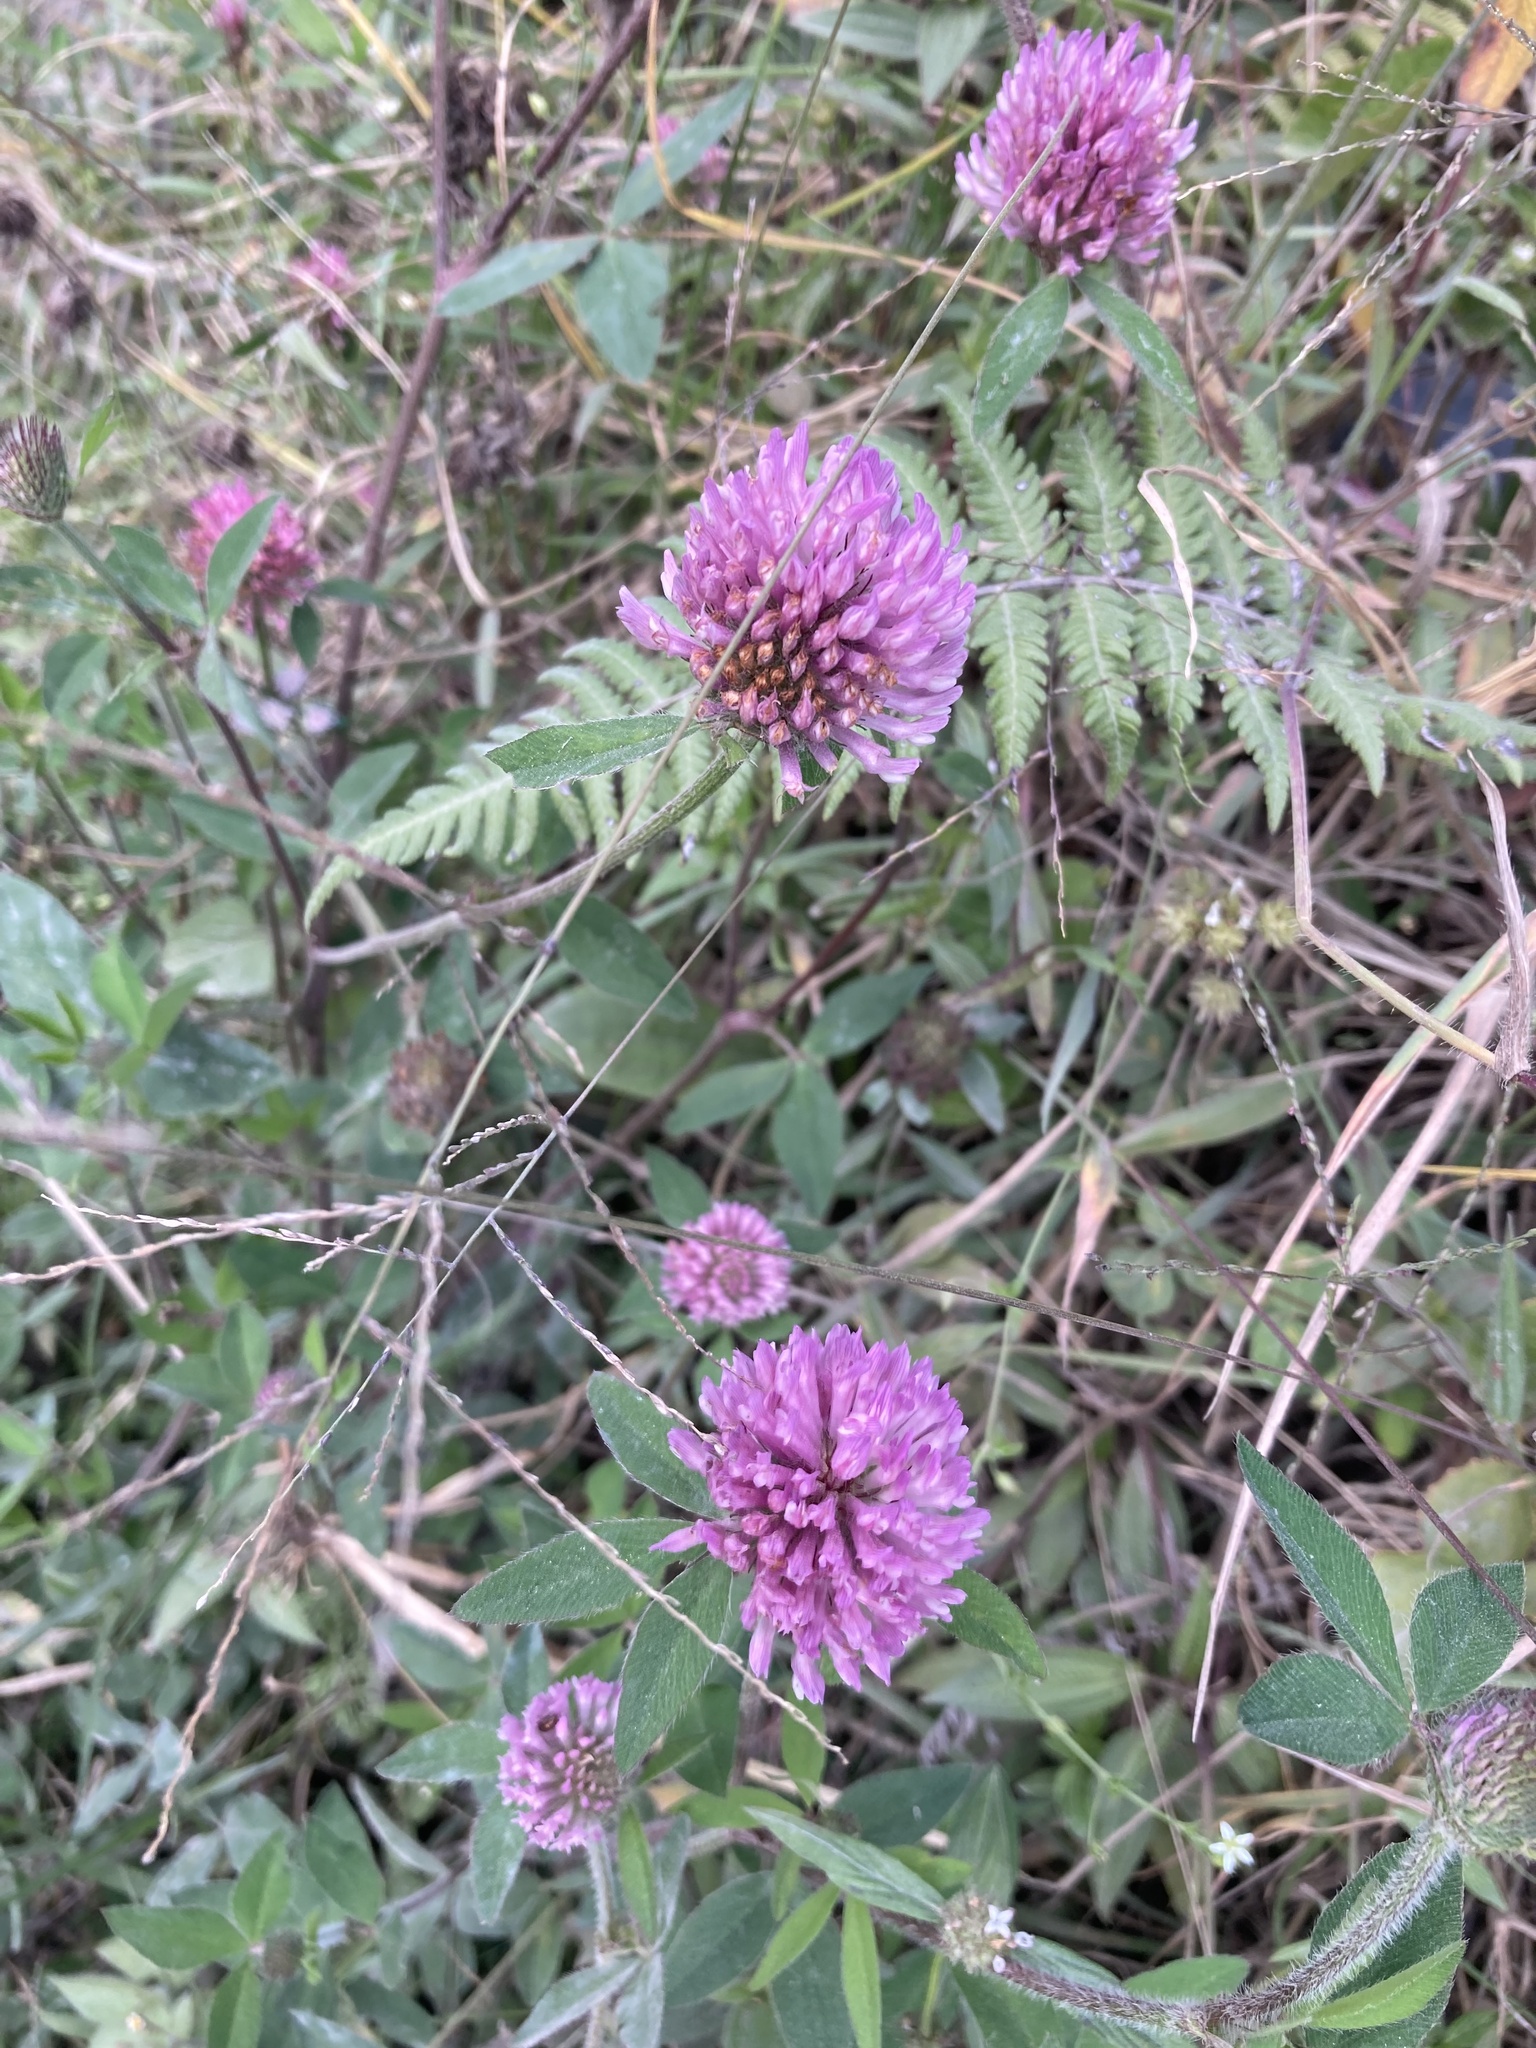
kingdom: Plantae
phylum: Tracheophyta
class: Magnoliopsida
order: Fabales
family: Fabaceae
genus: Trifolium
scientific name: Trifolium pratense
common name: Red clover
